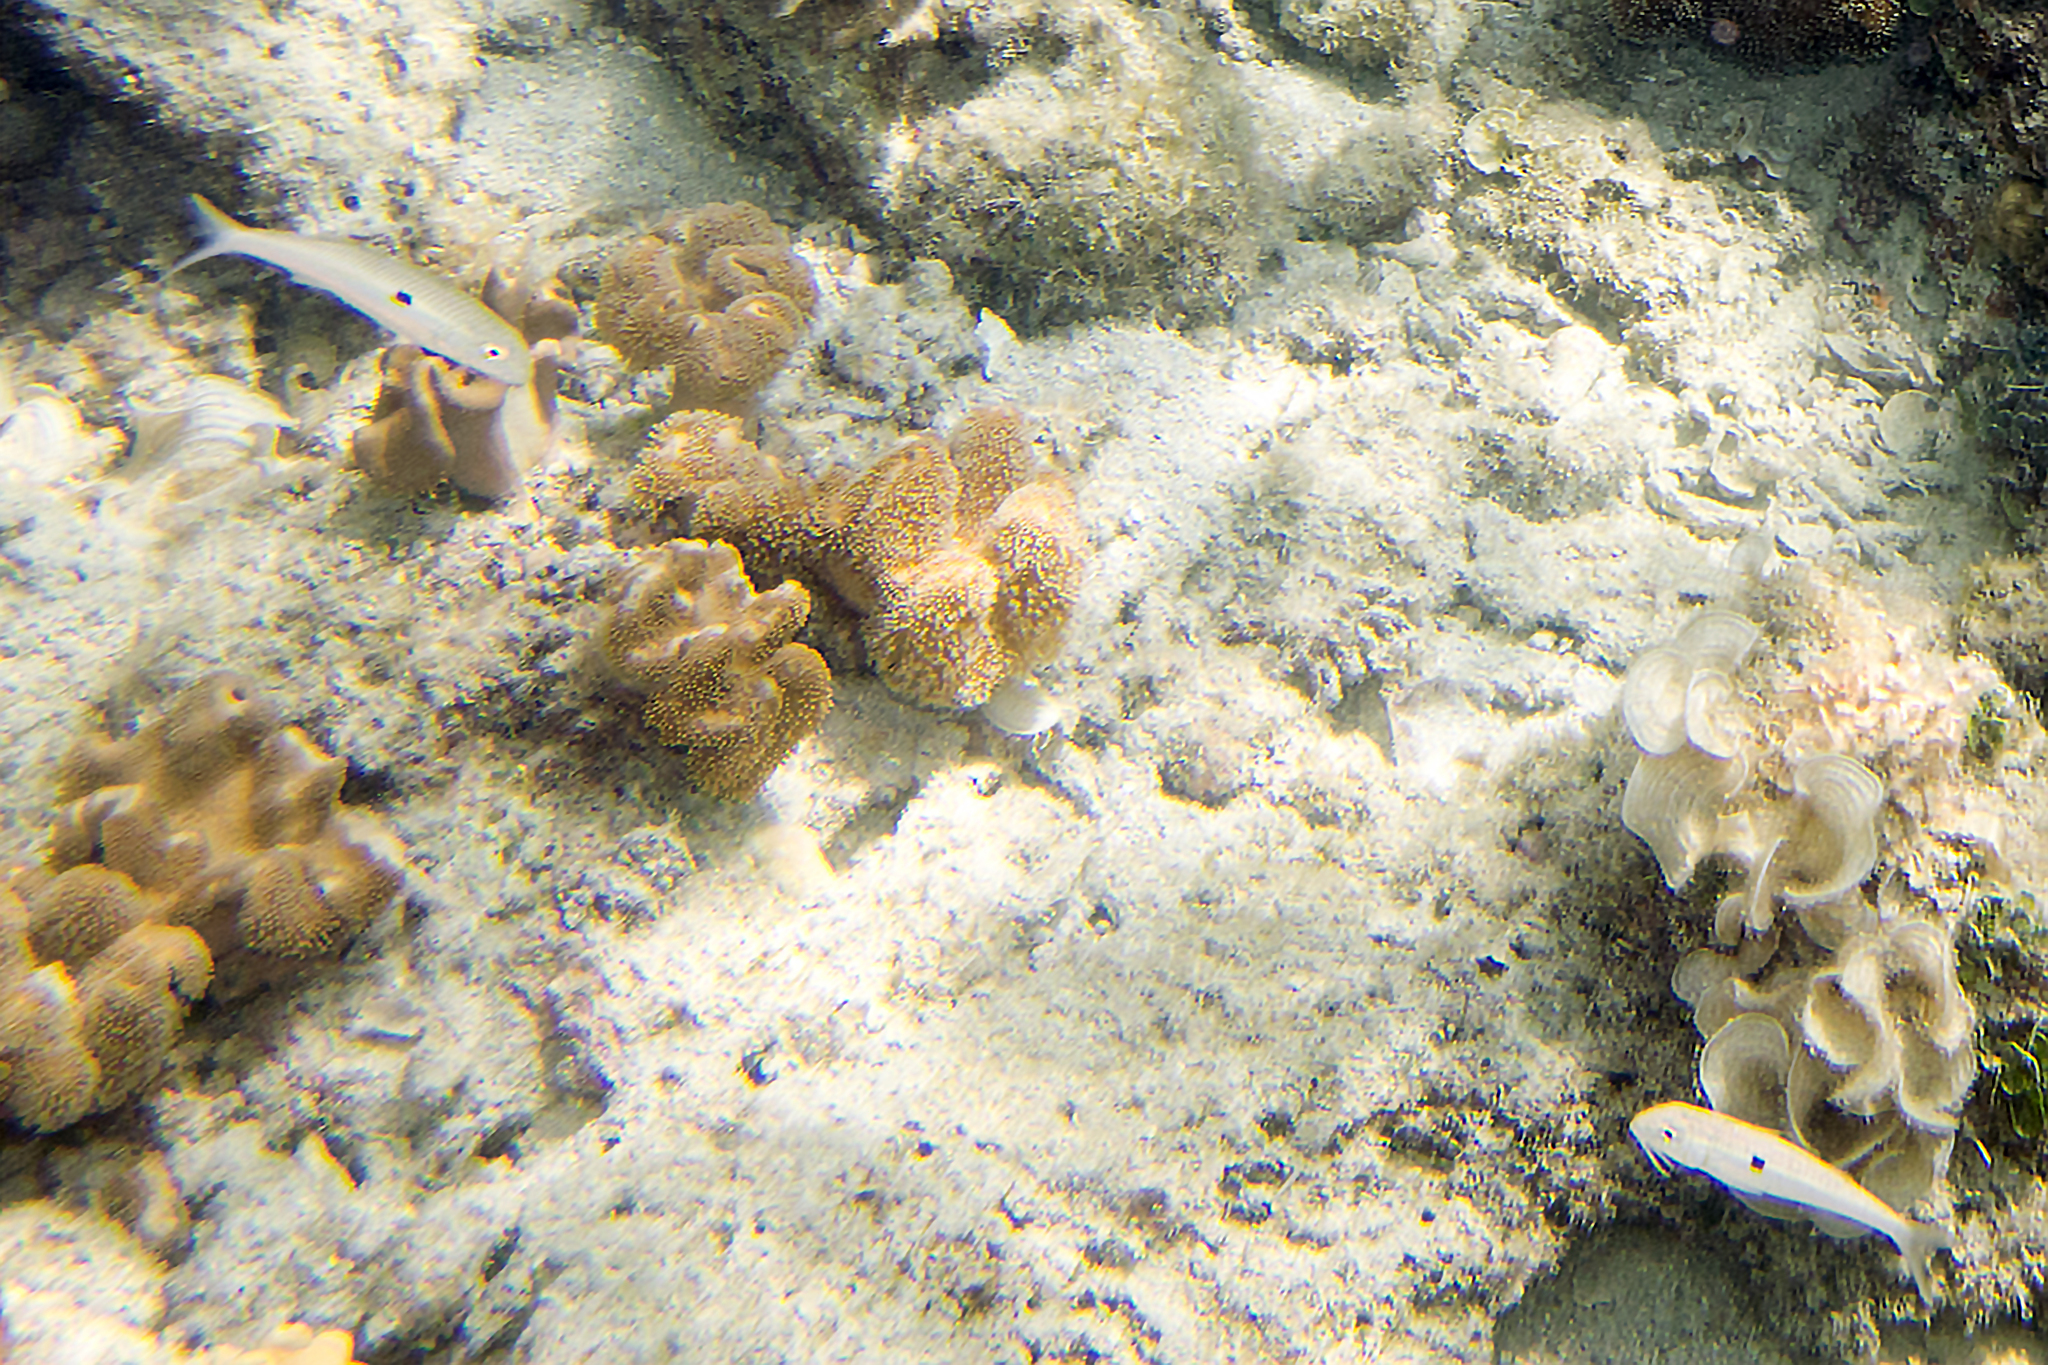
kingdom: Animalia
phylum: Chordata
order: Perciformes
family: Mullidae
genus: Mulloidichthys
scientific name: Mulloidichthys flavolineatus
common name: Yellowstripe goatfish
